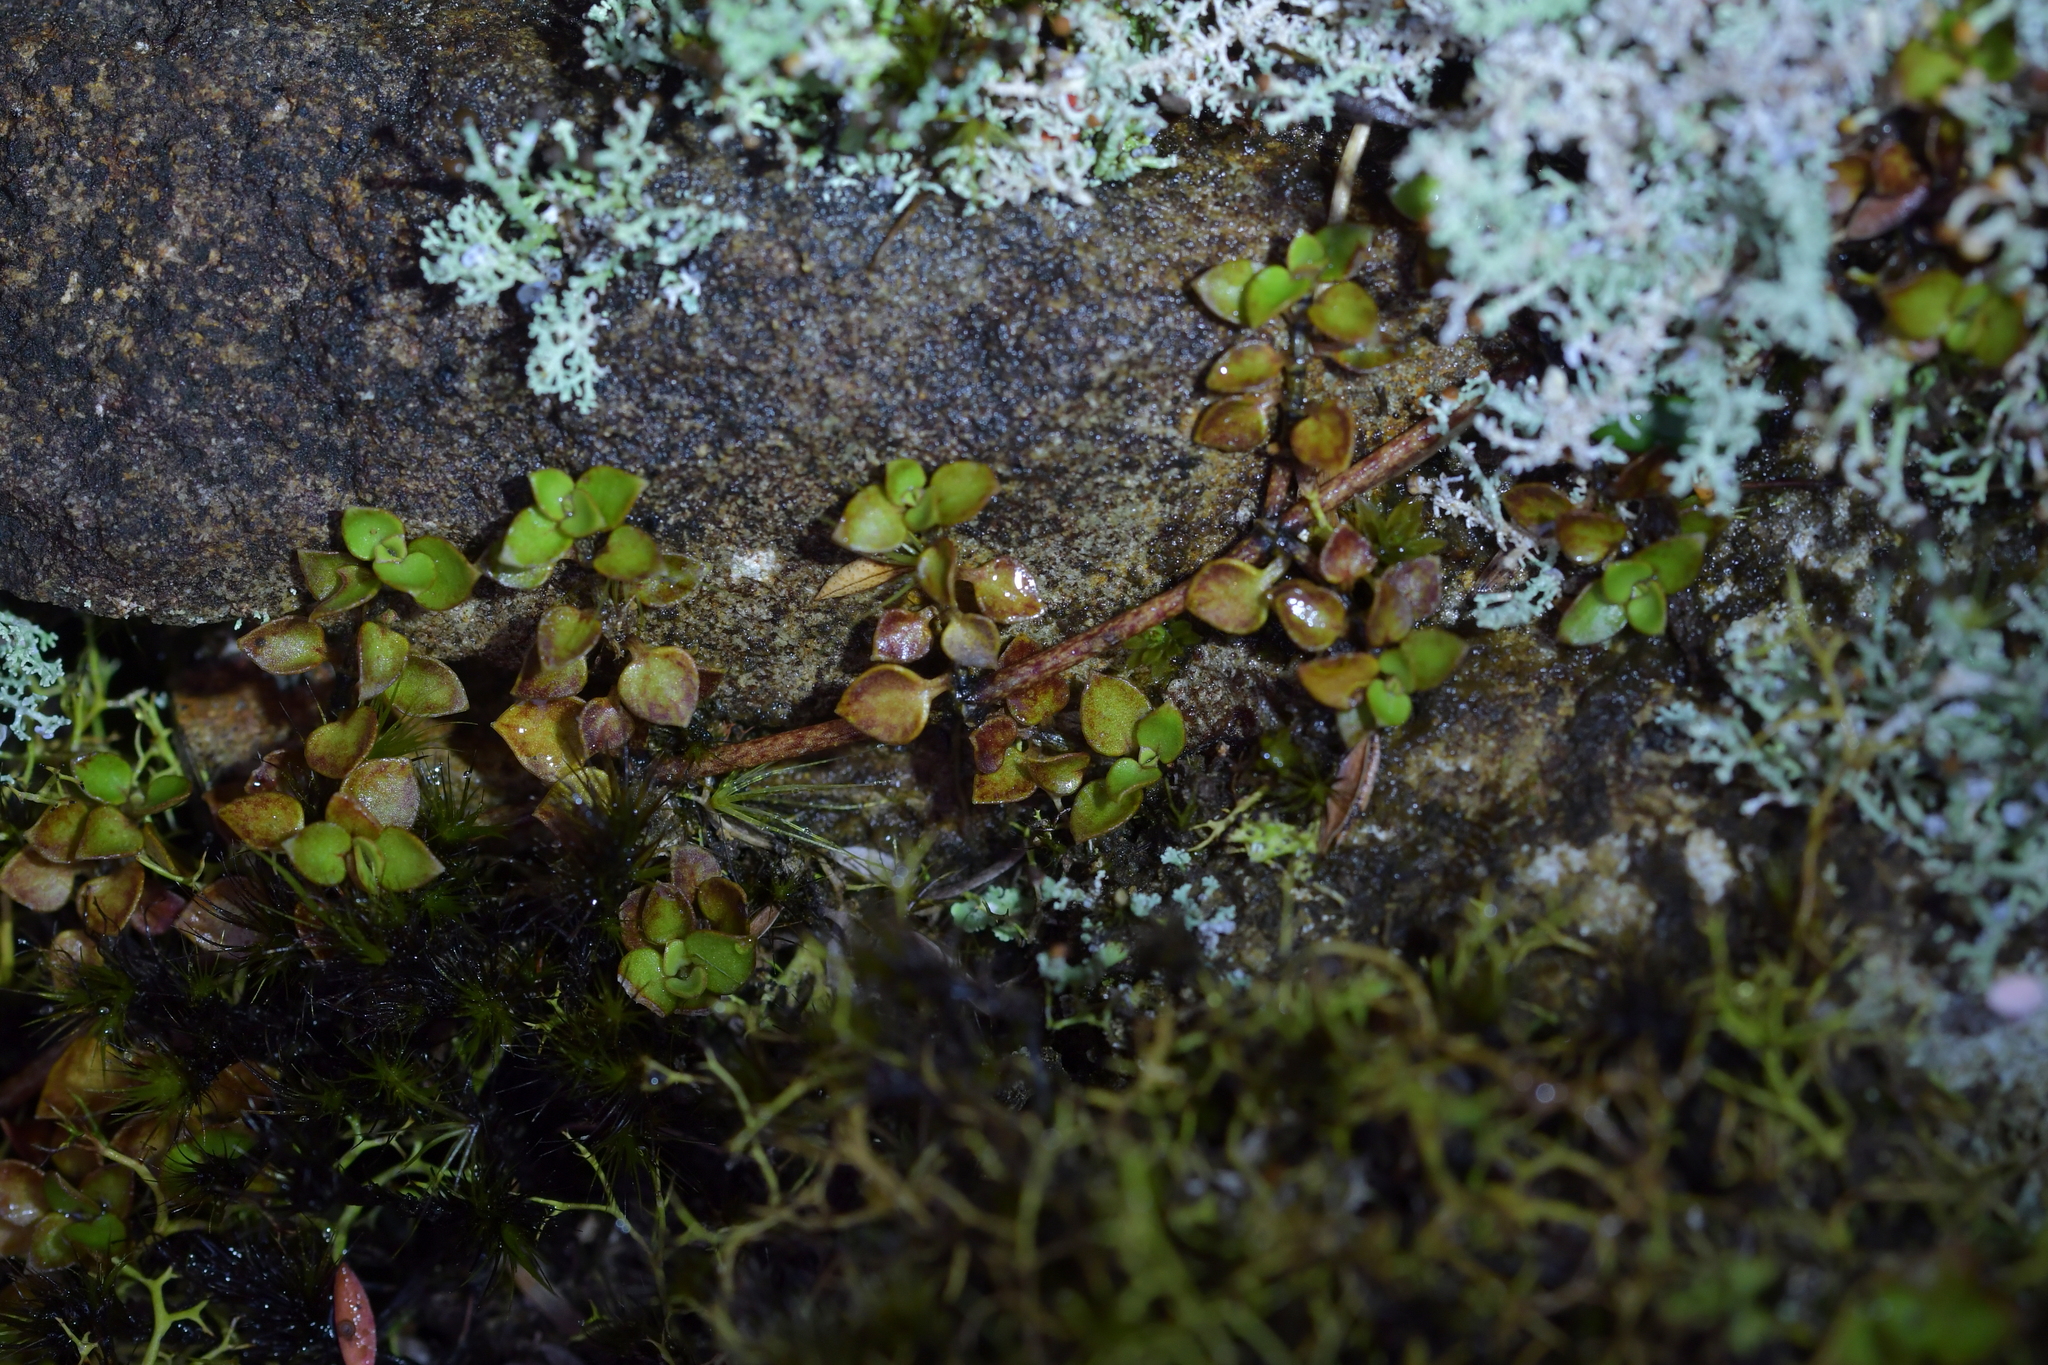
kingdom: Plantae
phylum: Tracheophyta
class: Magnoliopsida
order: Gentianales
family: Rubiaceae
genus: Nertera
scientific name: Nertera granadensis
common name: Beadplant
